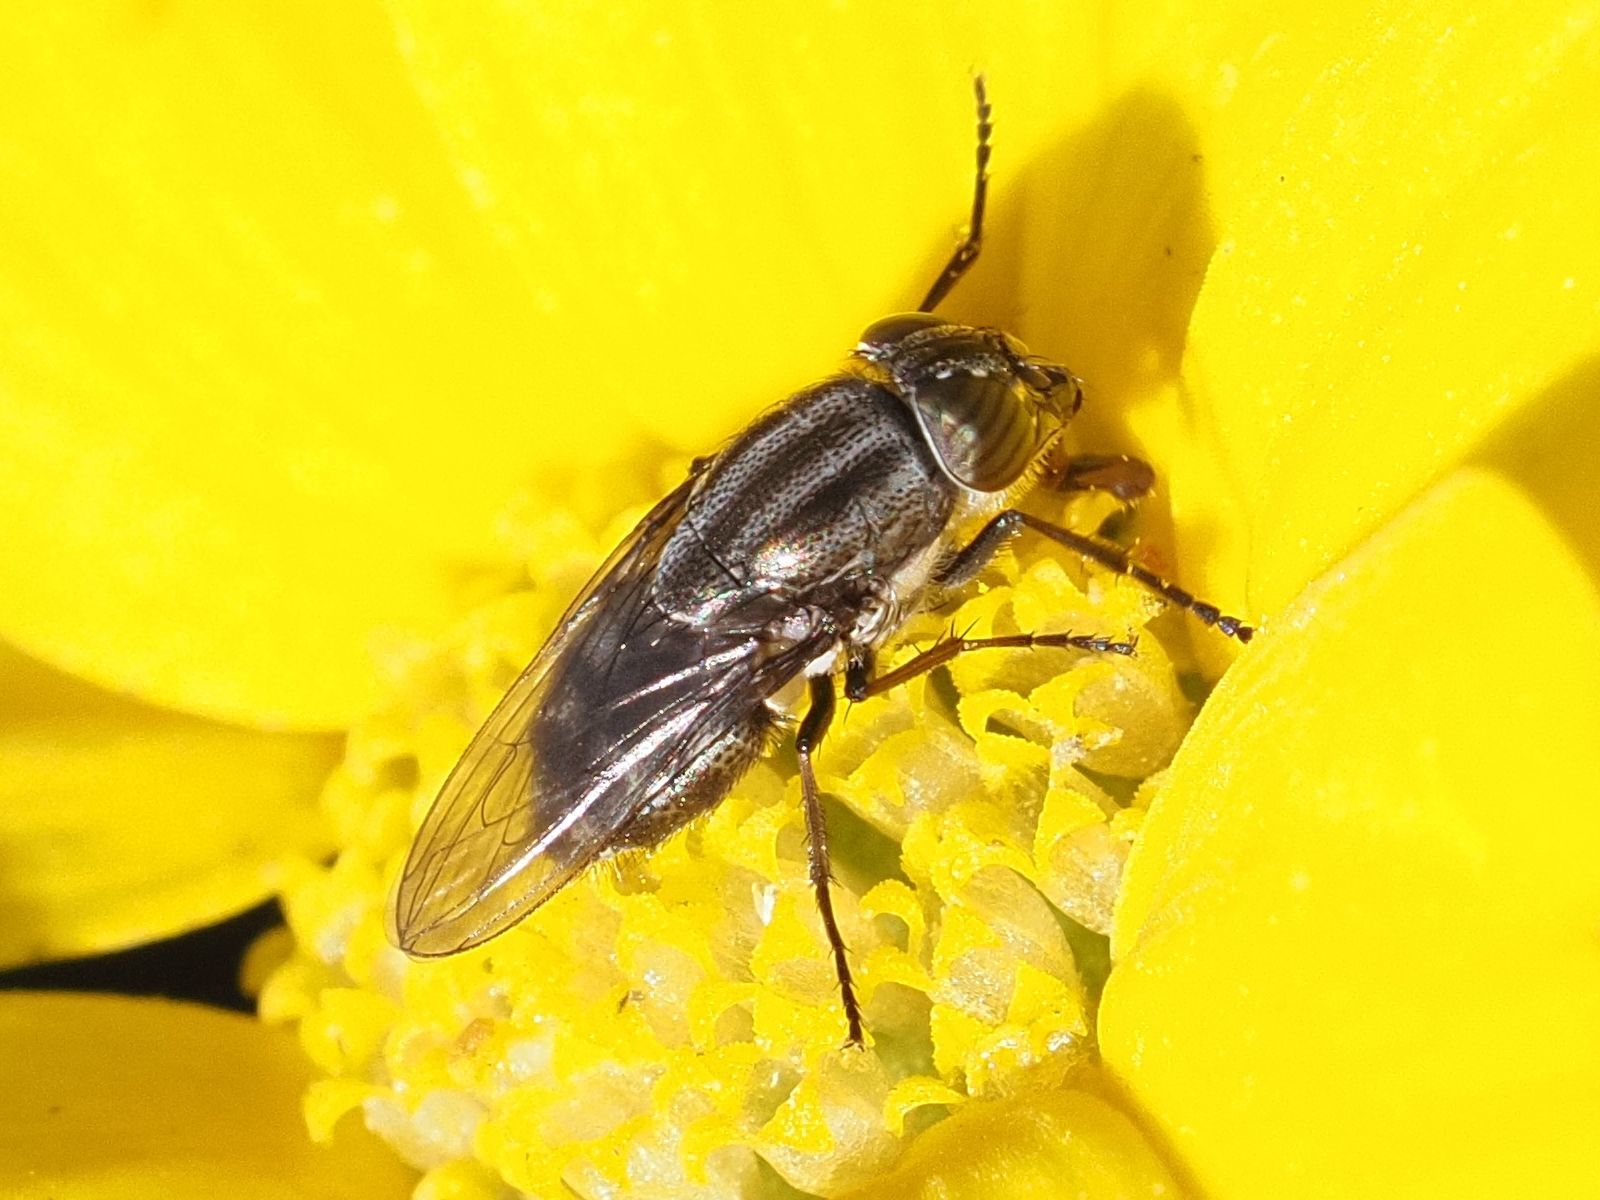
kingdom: Animalia
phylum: Arthropoda
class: Insecta
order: Diptera
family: Calliphoridae
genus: Stomorhina
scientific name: Stomorhina lunata
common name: Locust blowfly
